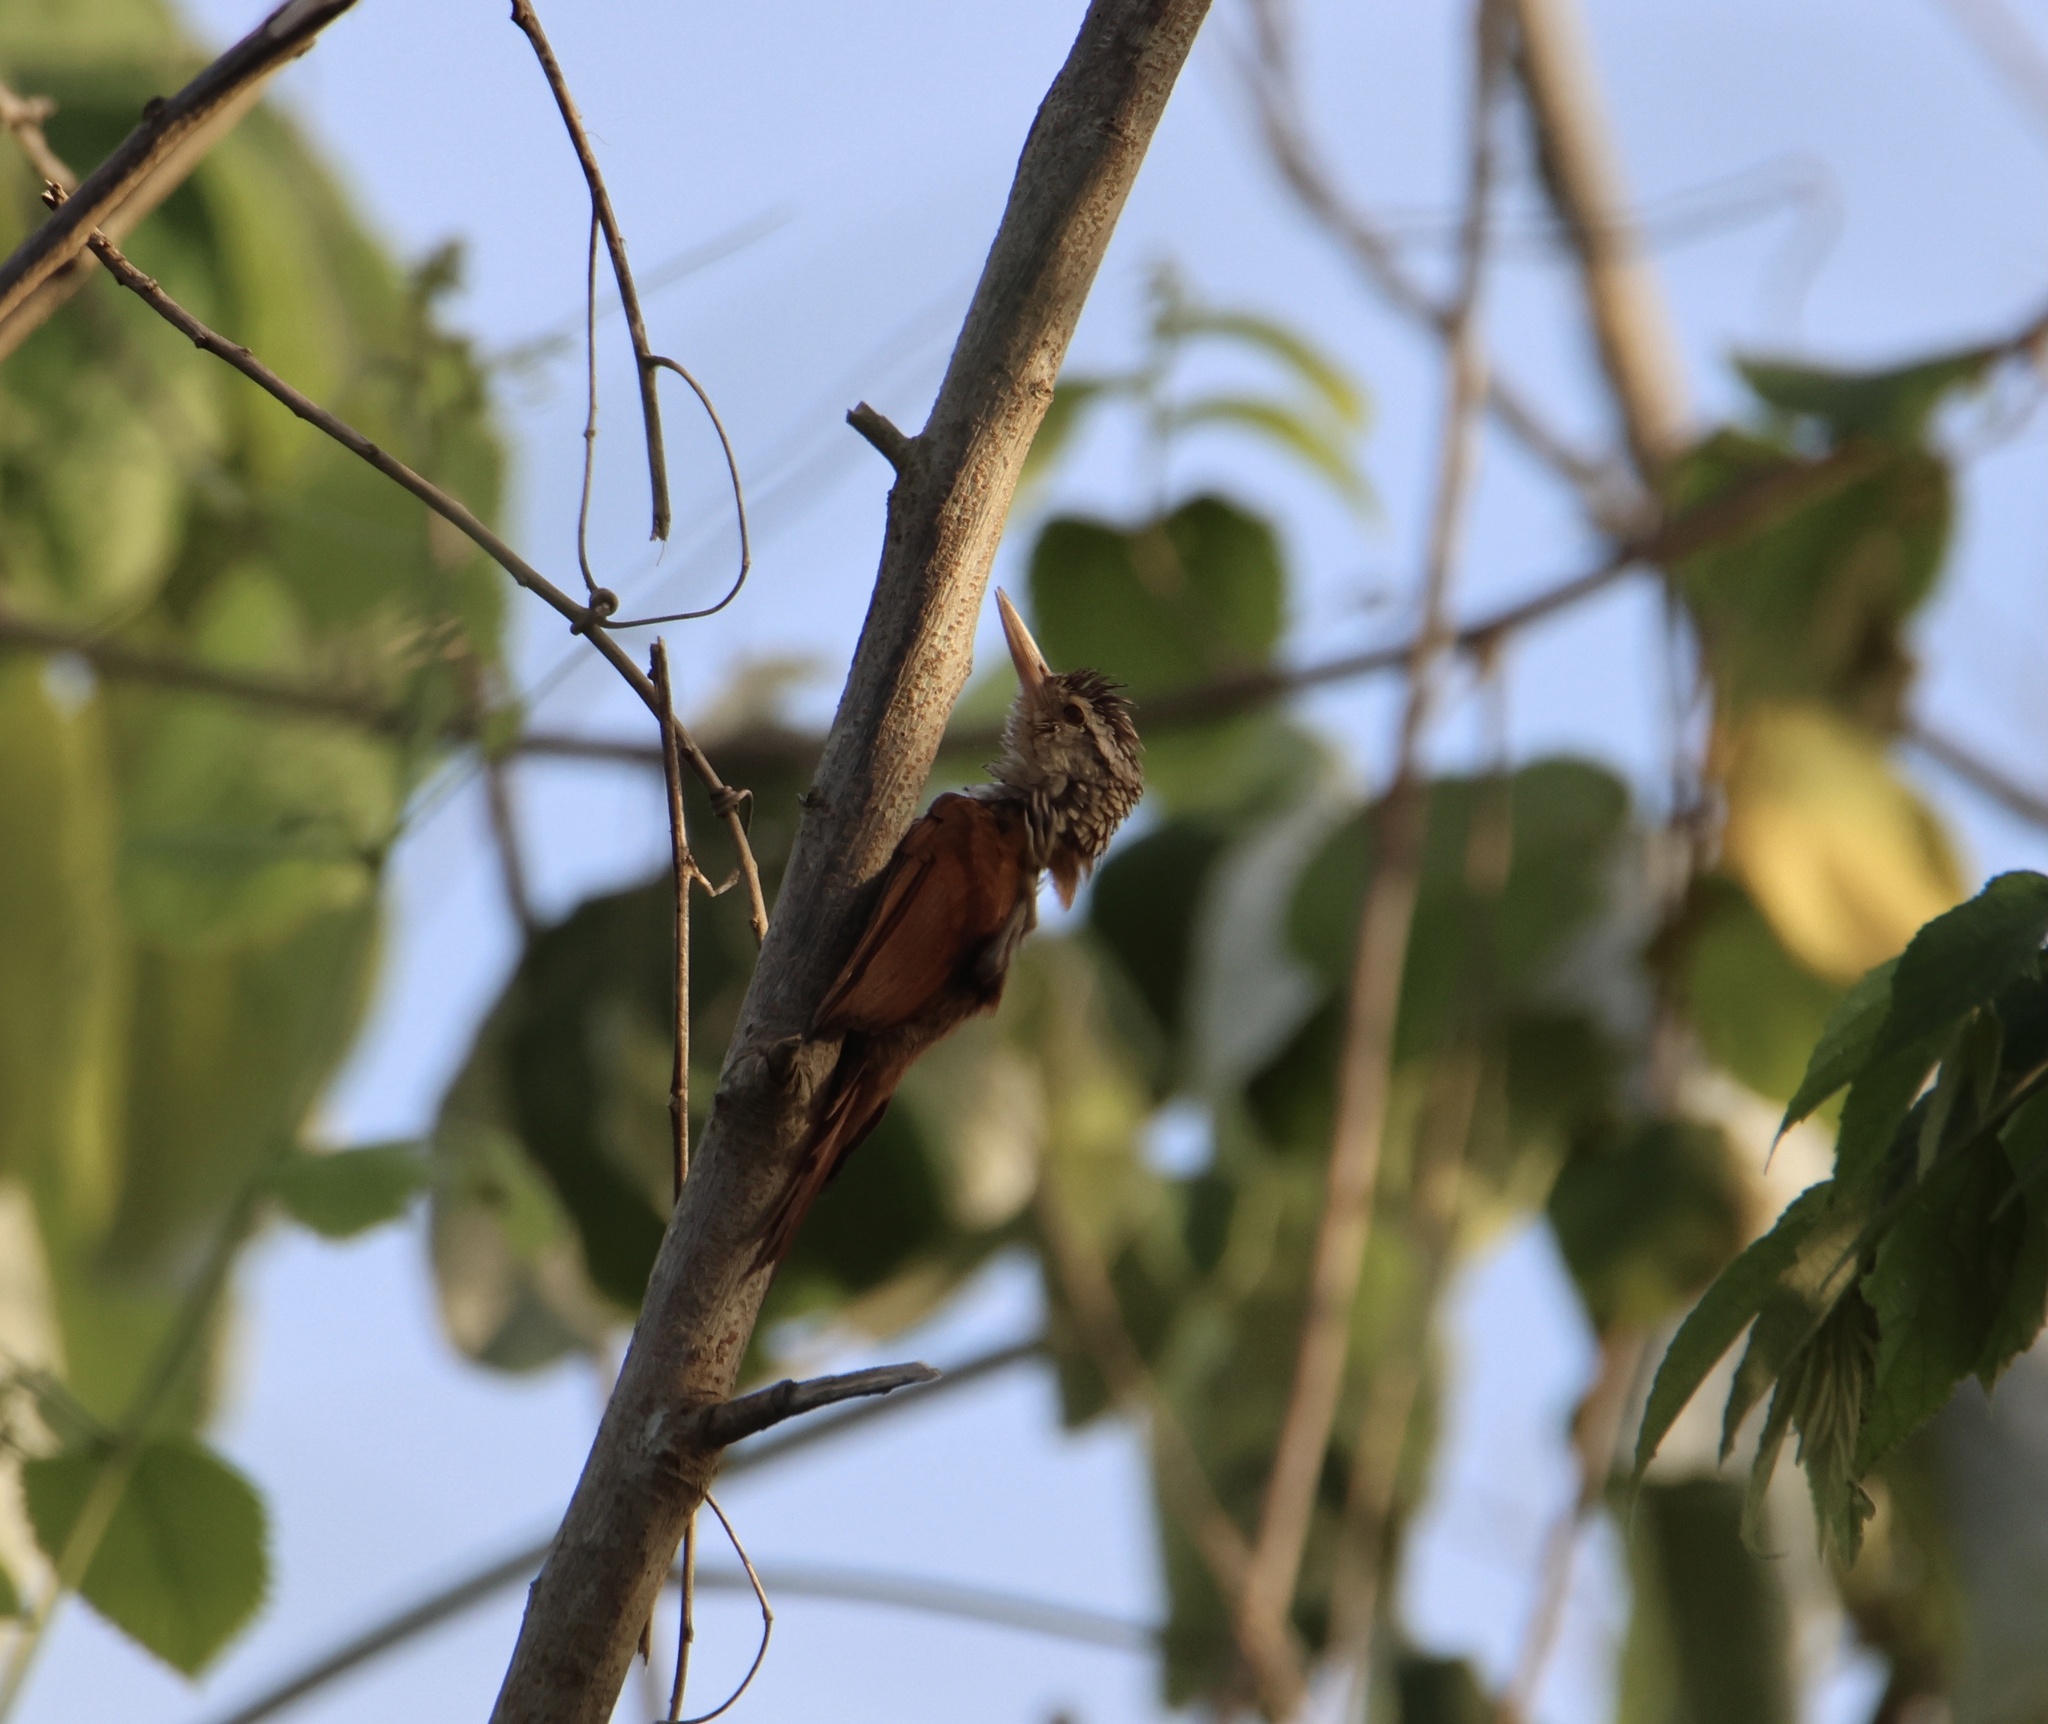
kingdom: Animalia
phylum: Chordata
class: Aves
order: Passeriformes
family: Furnariidae
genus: Xiphorhynchus
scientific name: Xiphorhynchus picus
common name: Straight-billed woodcreeper
